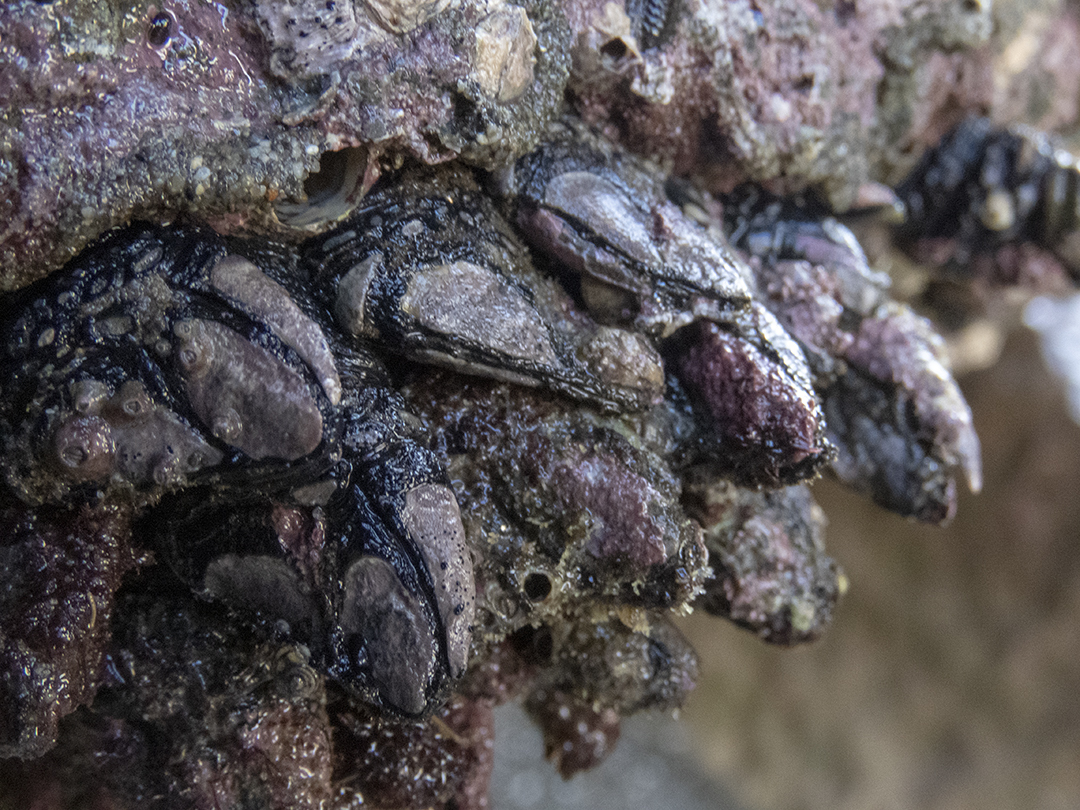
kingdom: Animalia
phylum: Arthropoda
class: Maxillopoda
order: Pedunculata
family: Calanticidae
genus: Calantica
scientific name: Calantica spinosa
